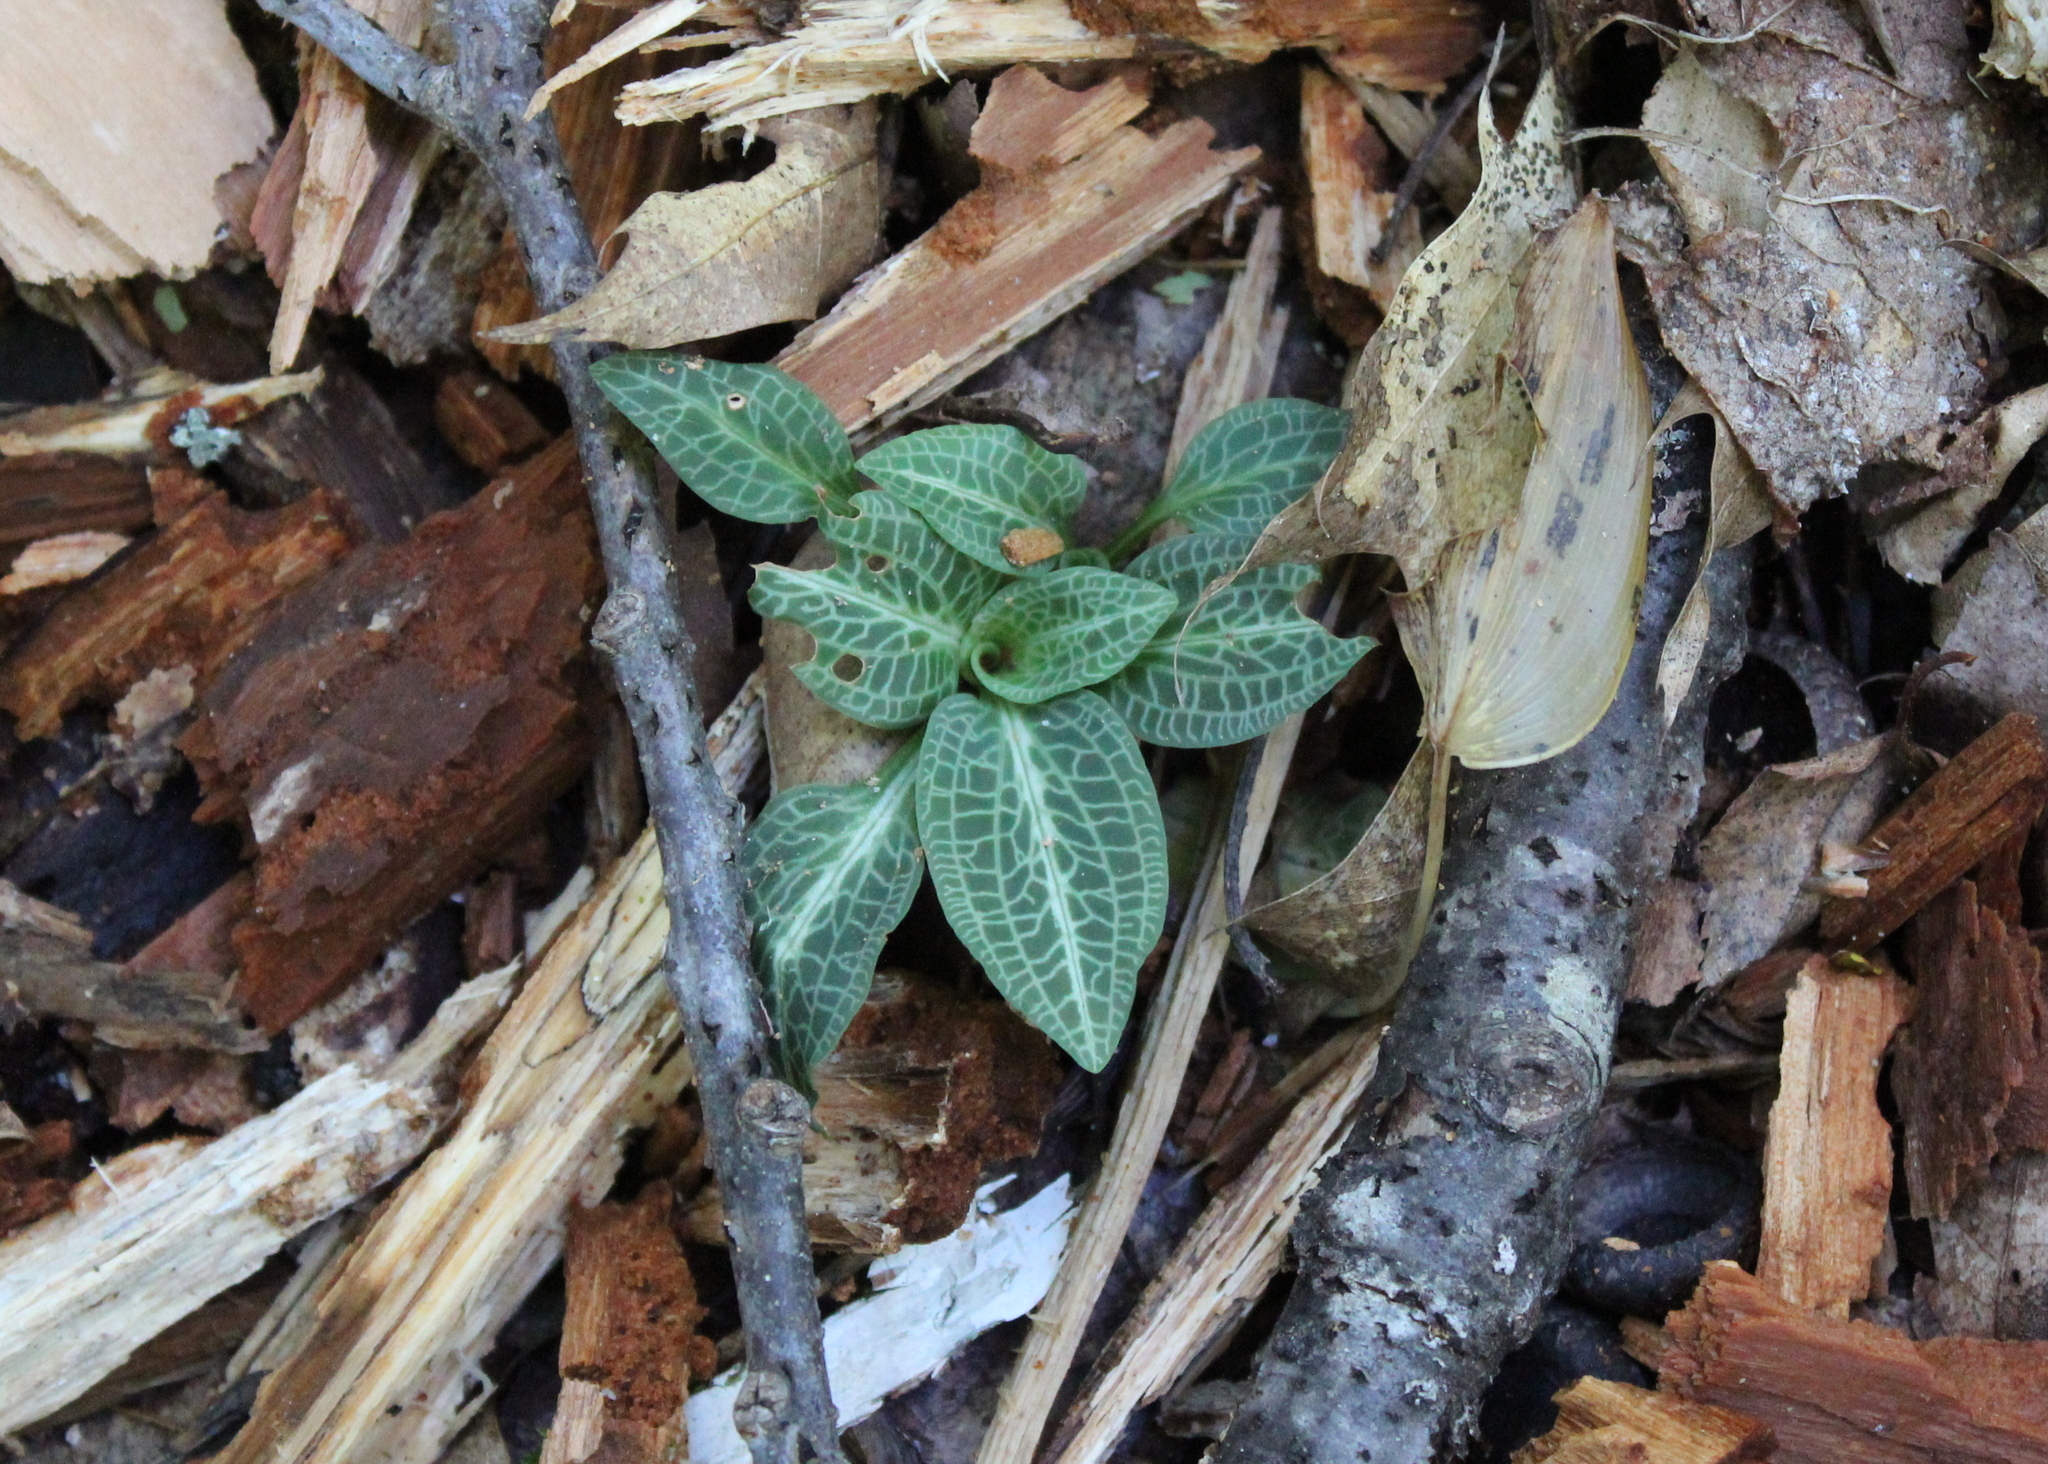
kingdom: Plantae
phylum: Tracheophyta
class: Liliopsida
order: Asparagales
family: Orchidaceae
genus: Goodyera
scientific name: Goodyera pubescens
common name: Downy rattlesnake-plantain
